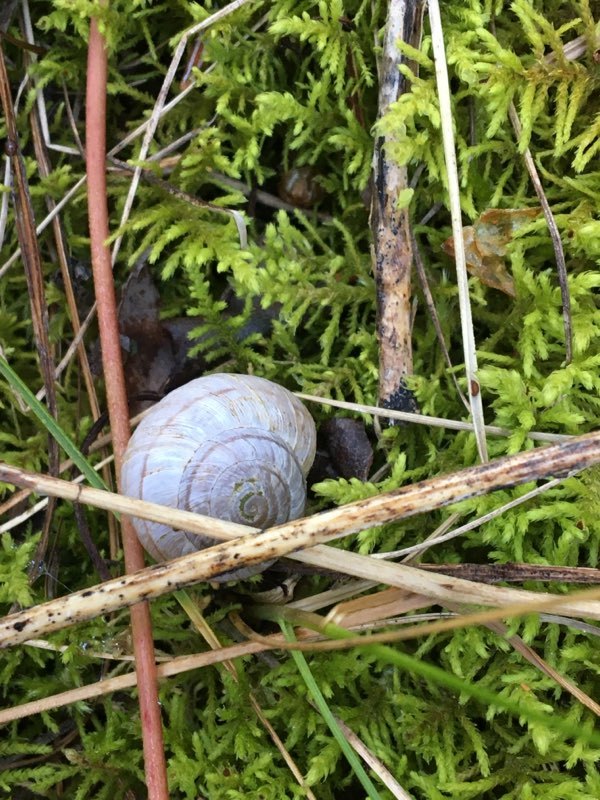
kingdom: Animalia
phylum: Mollusca
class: Gastropoda
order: Stylommatophora
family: Oreohelicidae
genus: Oreohelix
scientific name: Oreohelix subrudis
